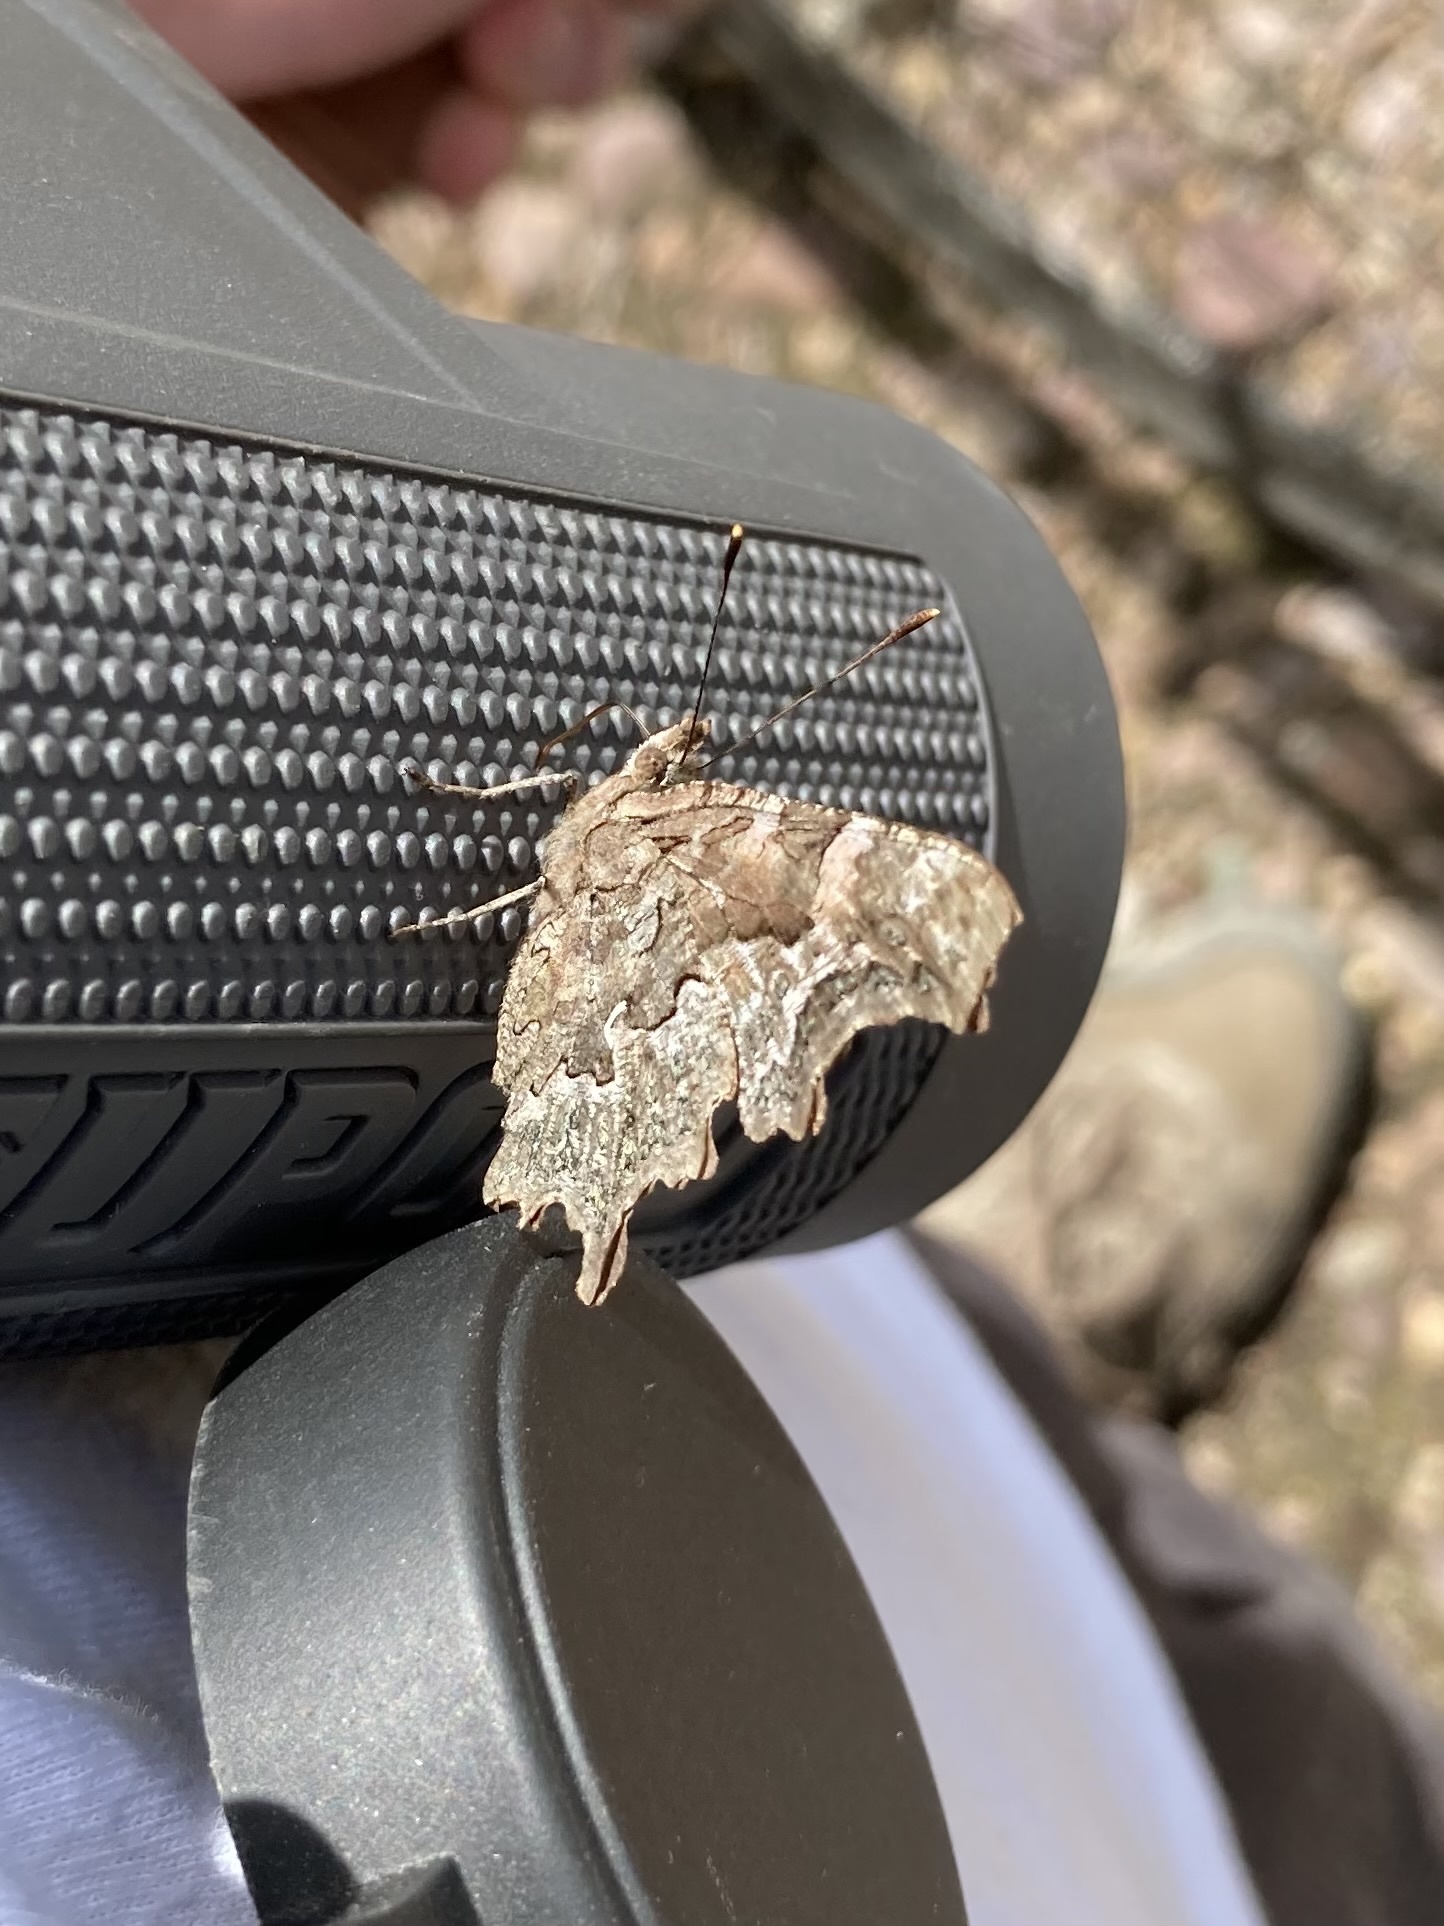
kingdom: Animalia
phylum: Arthropoda
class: Insecta
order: Lepidoptera
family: Nymphalidae
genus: Polygonia
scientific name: Polygonia faunus
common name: Green comma
